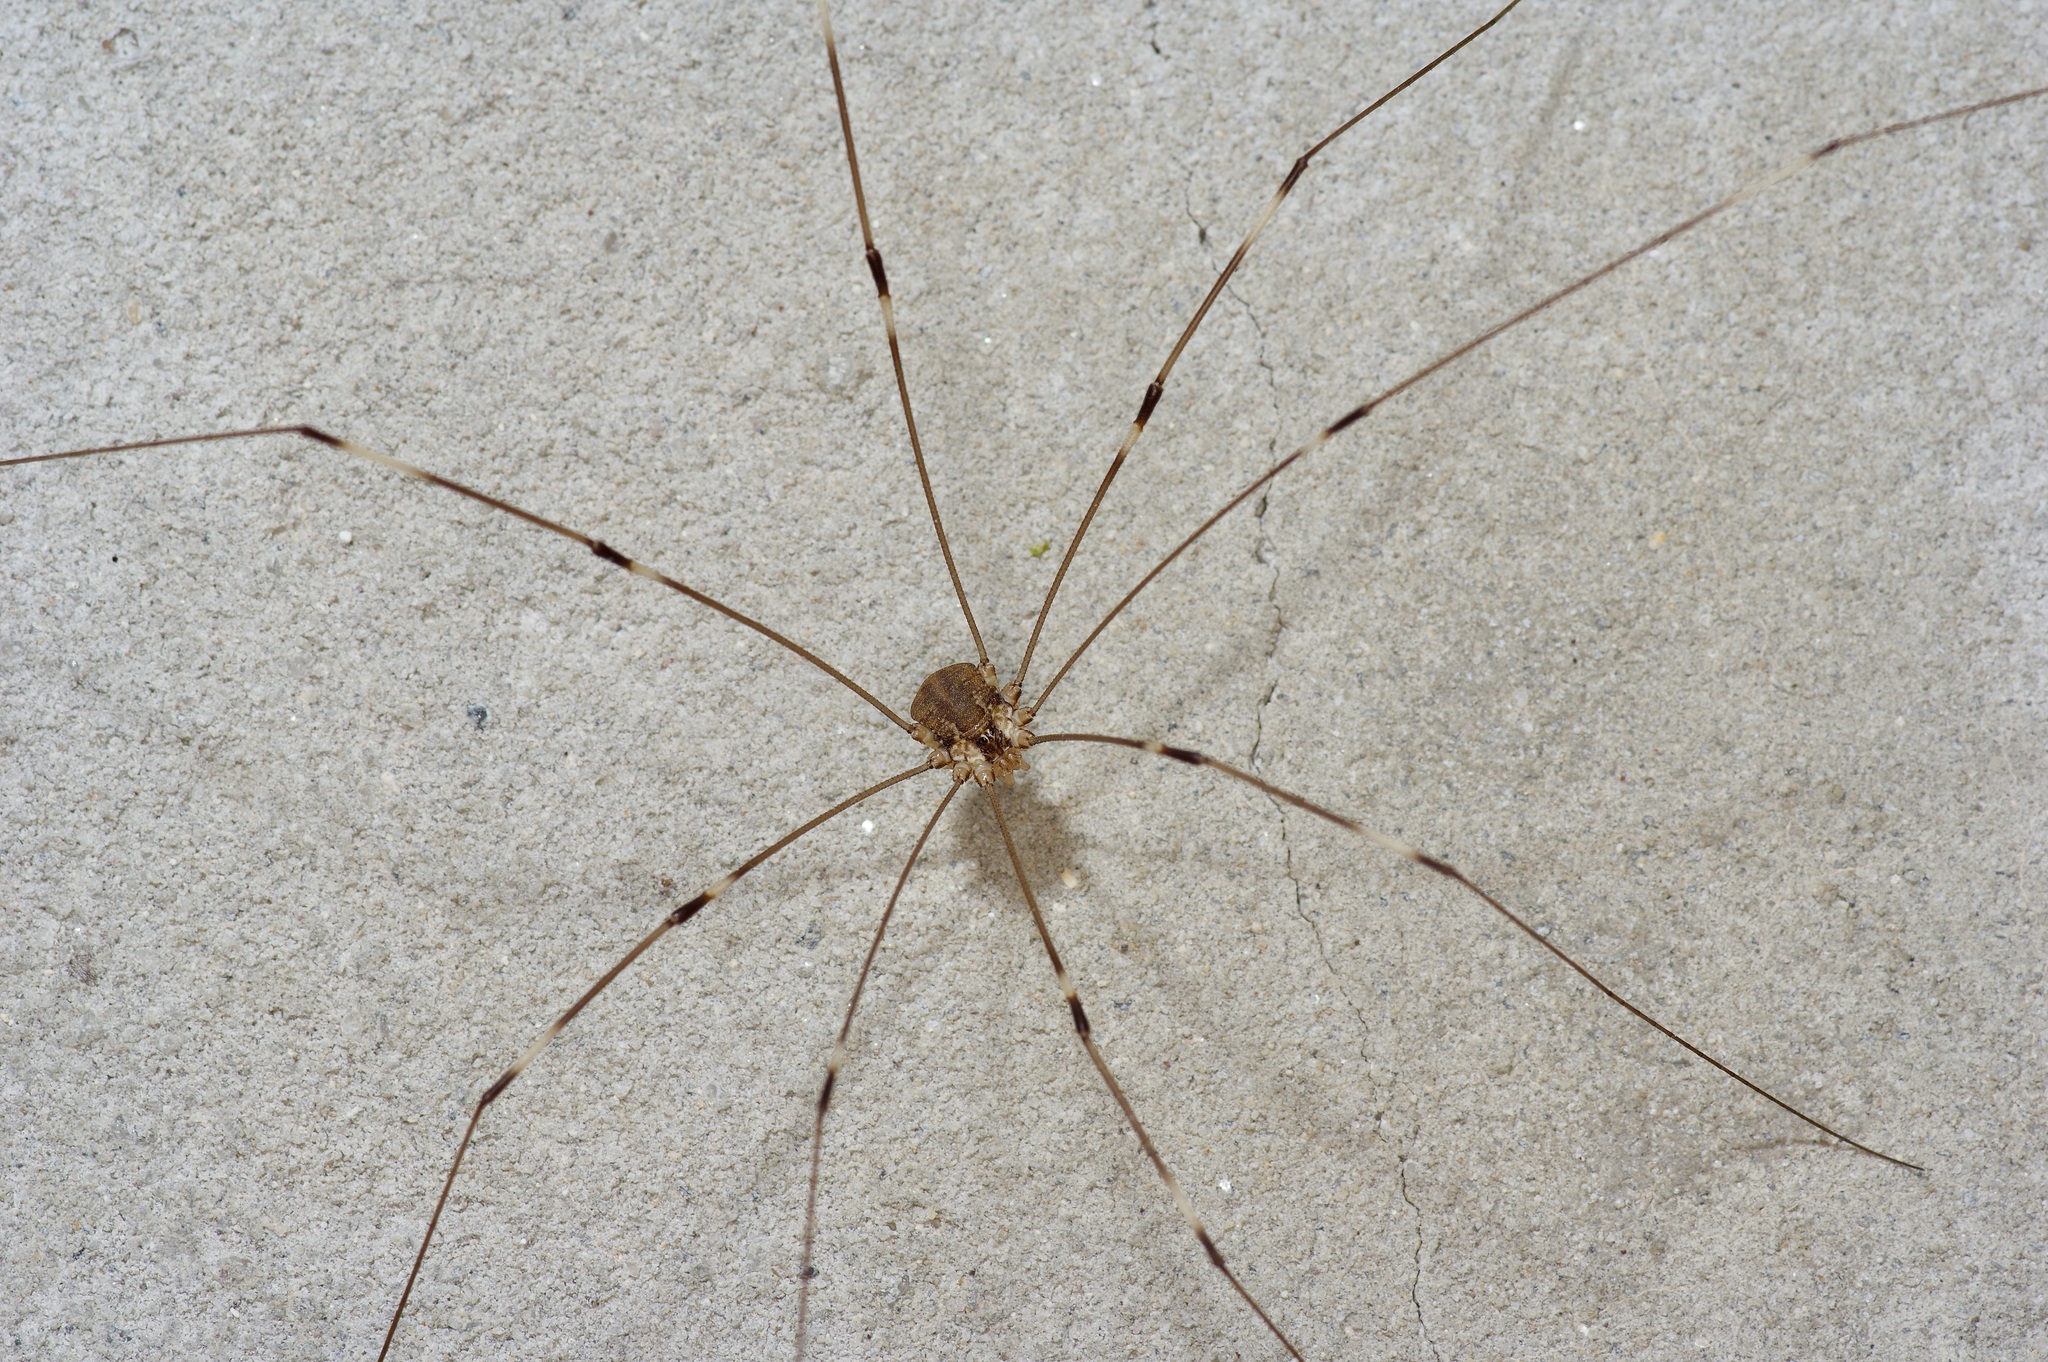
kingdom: Animalia
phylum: Arthropoda
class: Arachnida
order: Opiliones
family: Sclerosomatidae
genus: Leiobunum
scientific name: Leiobunum townsendi
